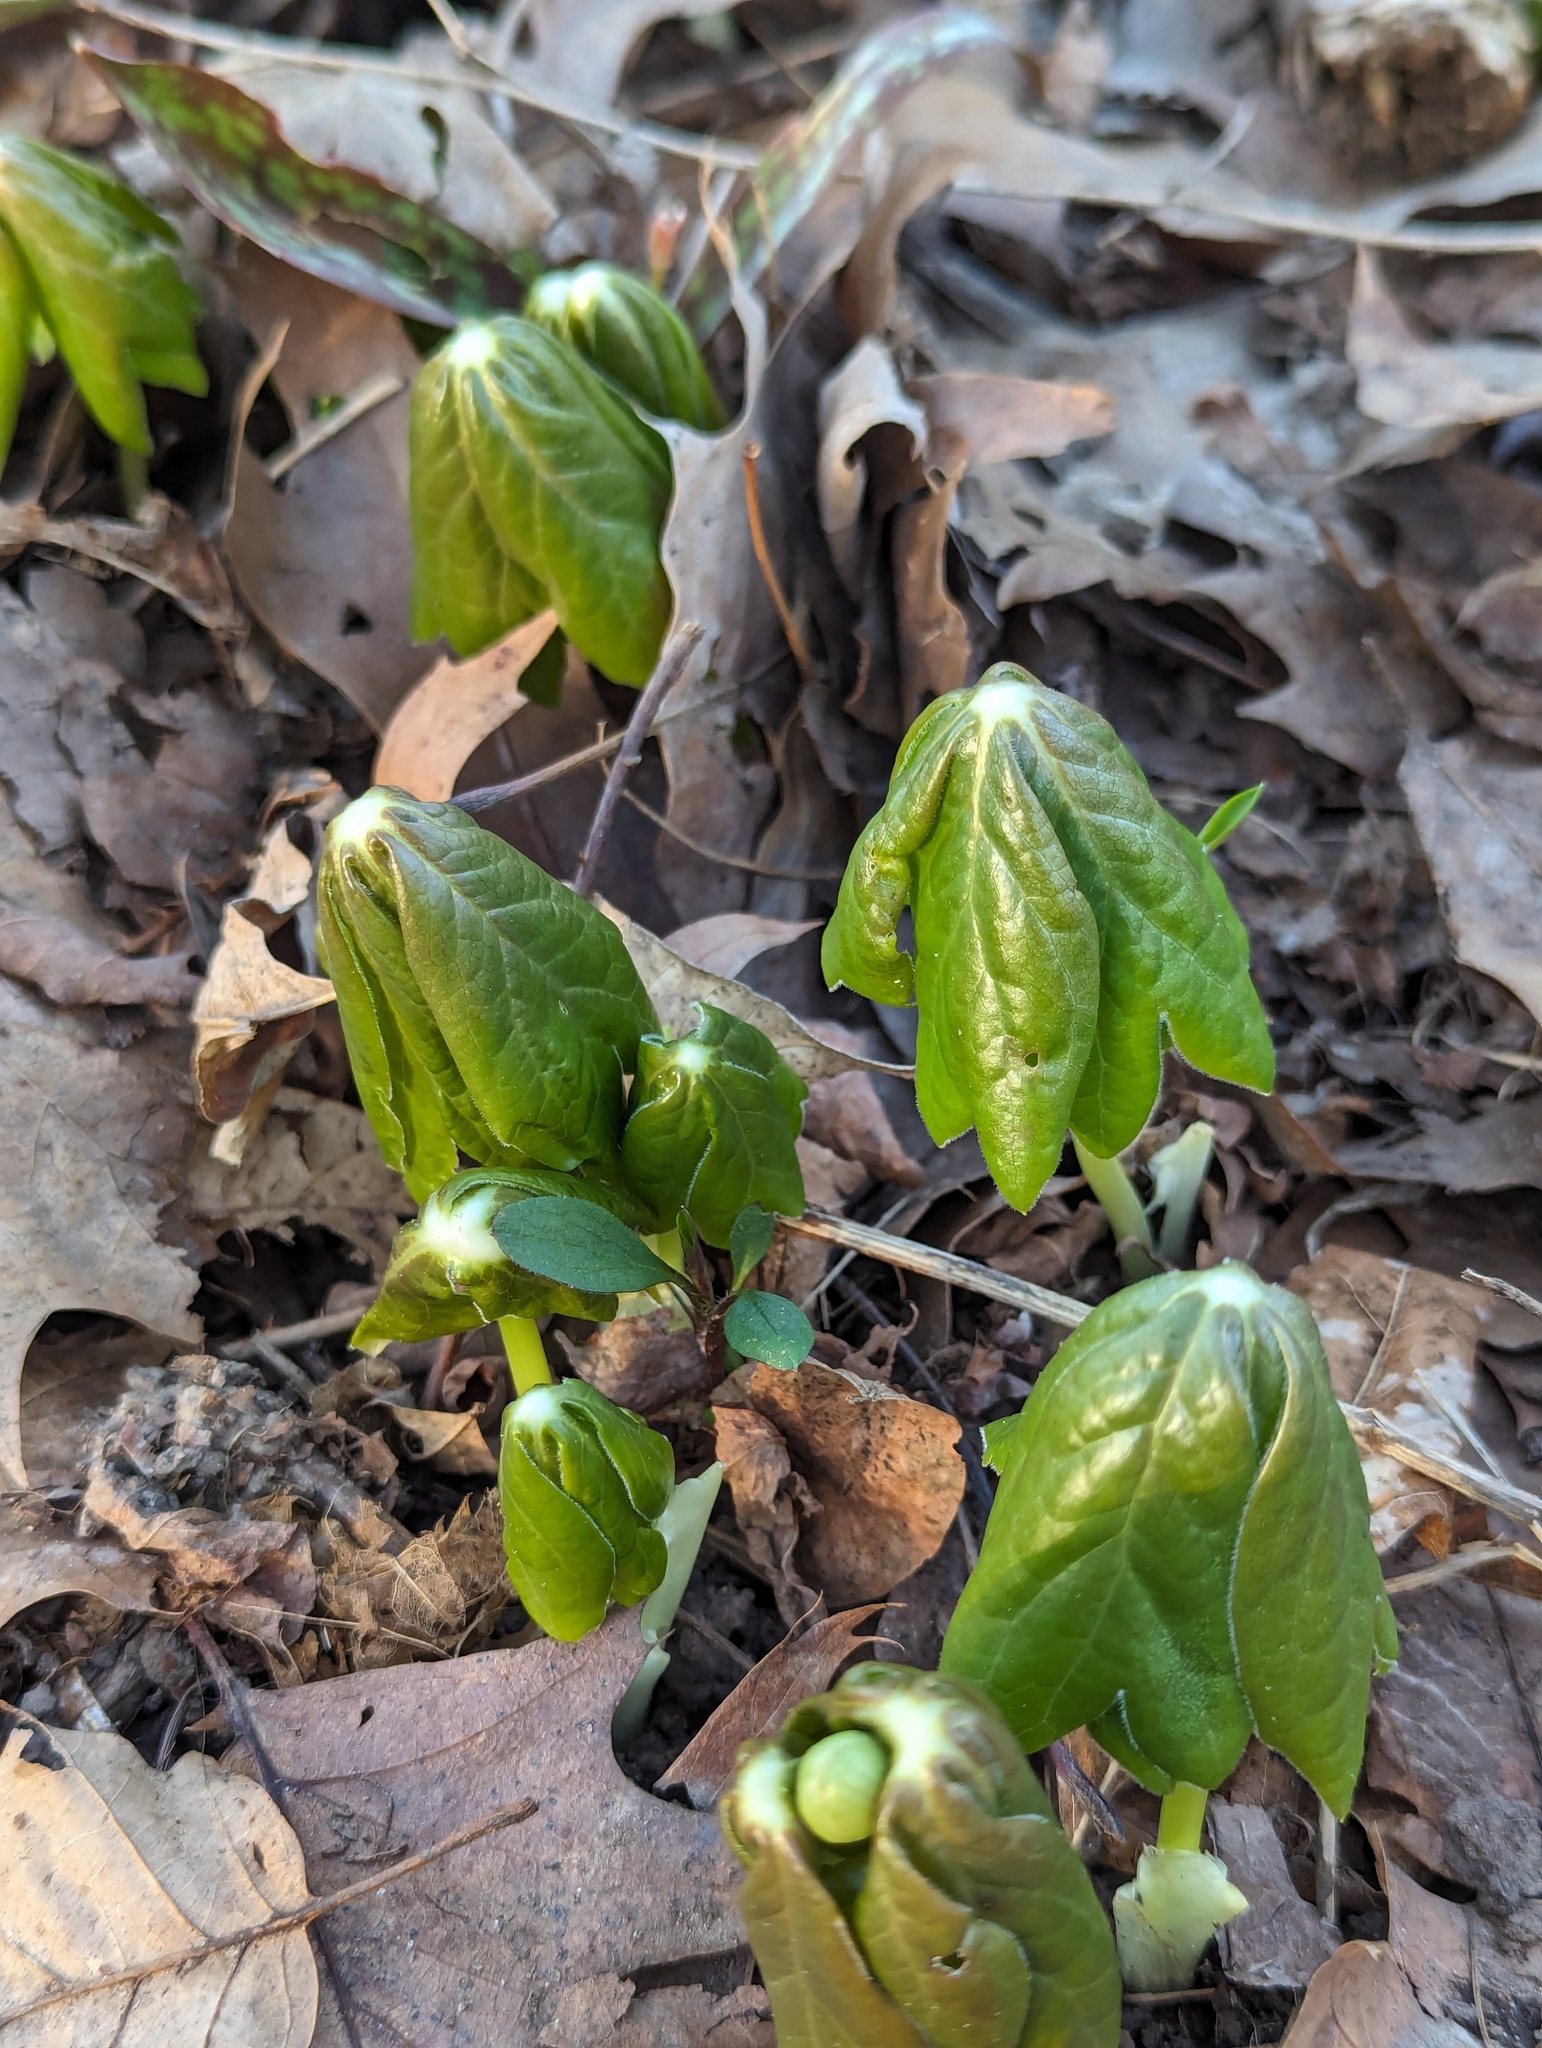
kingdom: Plantae
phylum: Tracheophyta
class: Magnoliopsida
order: Ranunculales
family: Berberidaceae
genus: Podophyllum
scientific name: Podophyllum peltatum
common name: Wild mandrake
